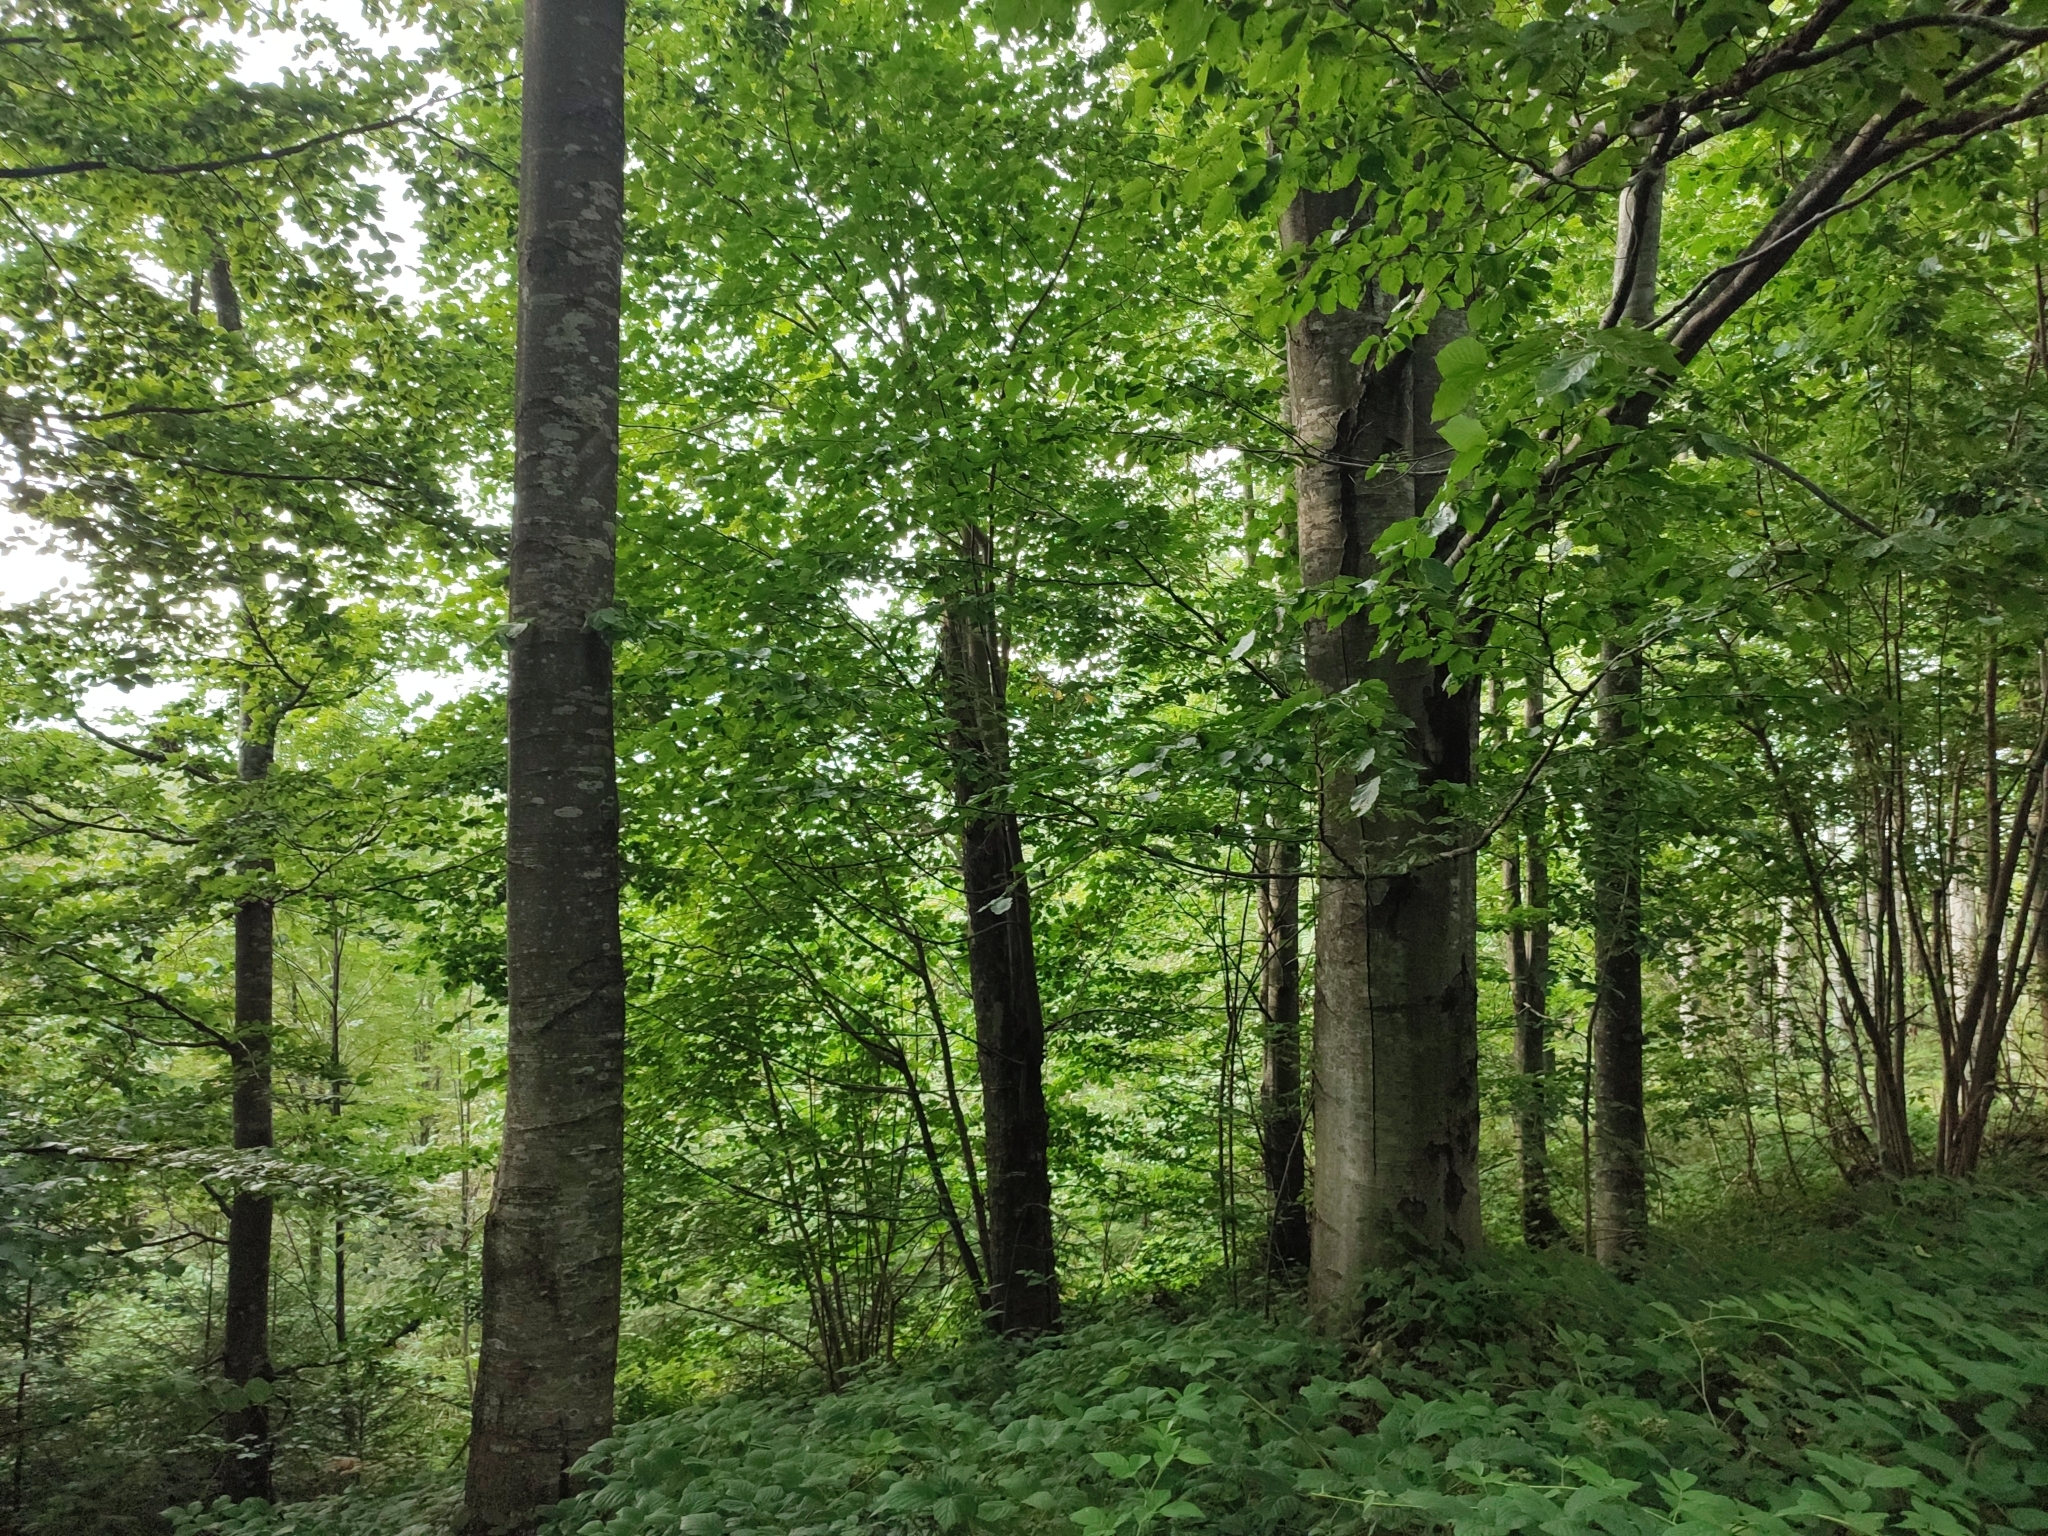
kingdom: Plantae
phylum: Tracheophyta
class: Magnoliopsida
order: Fagales
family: Fagaceae
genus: Fagus
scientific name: Fagus sylvatica
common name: Beech
